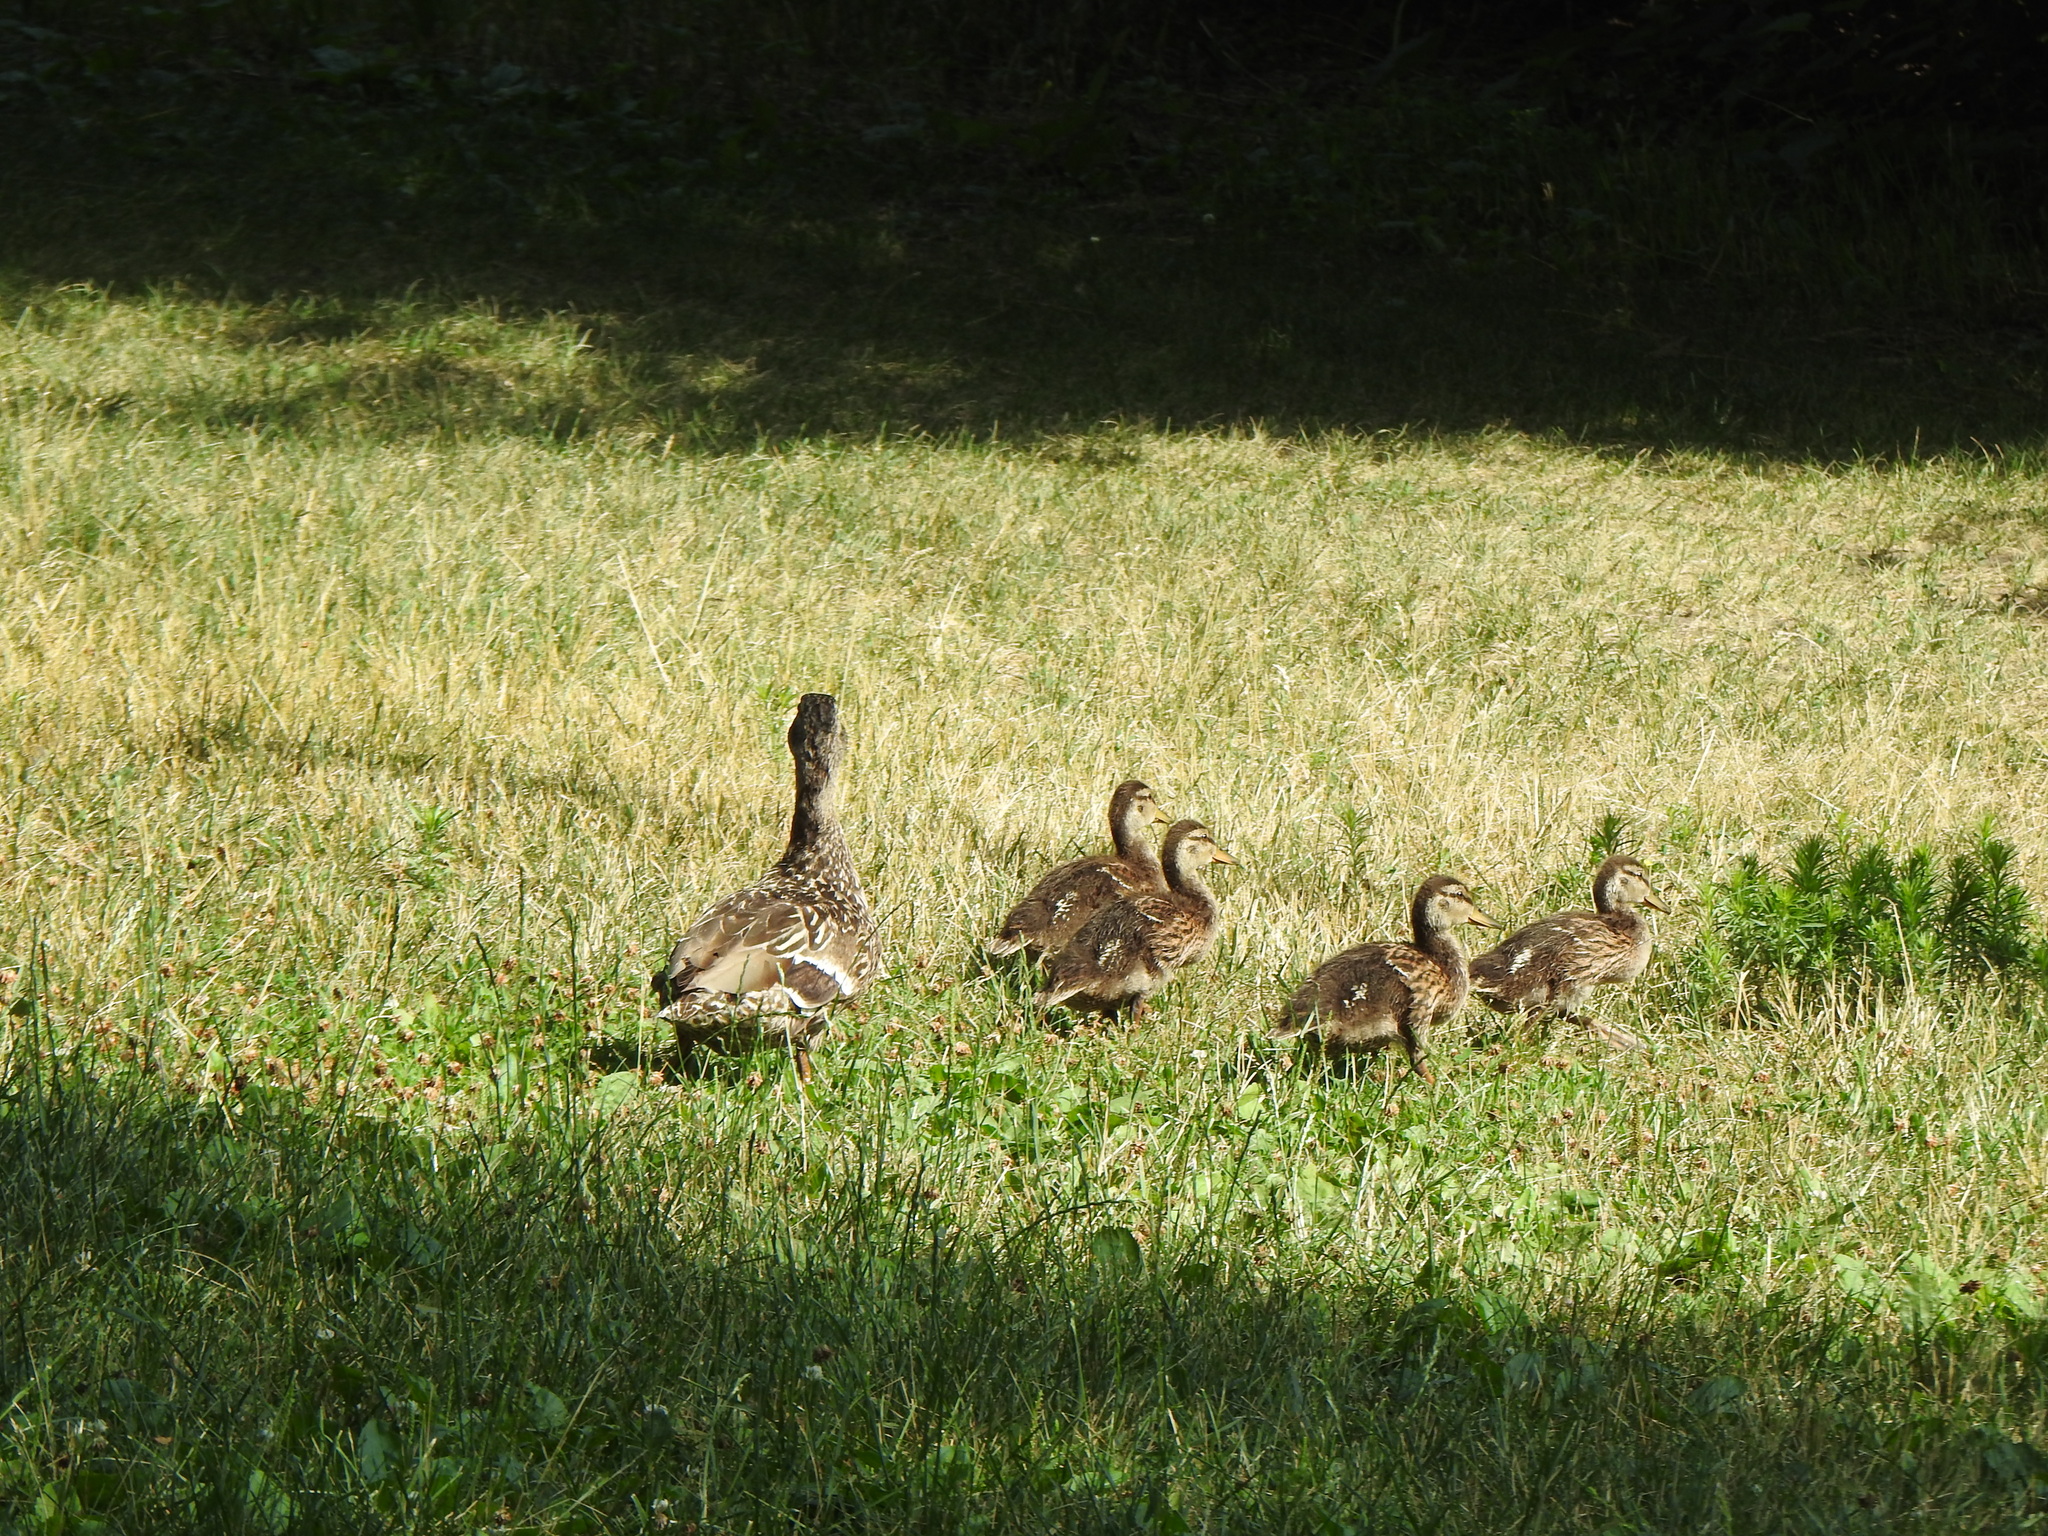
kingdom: Animalia
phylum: Chordata
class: Aves
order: Anseriformes
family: Anatidae
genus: Anas
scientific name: Anas platyrhynchos
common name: Mallard
